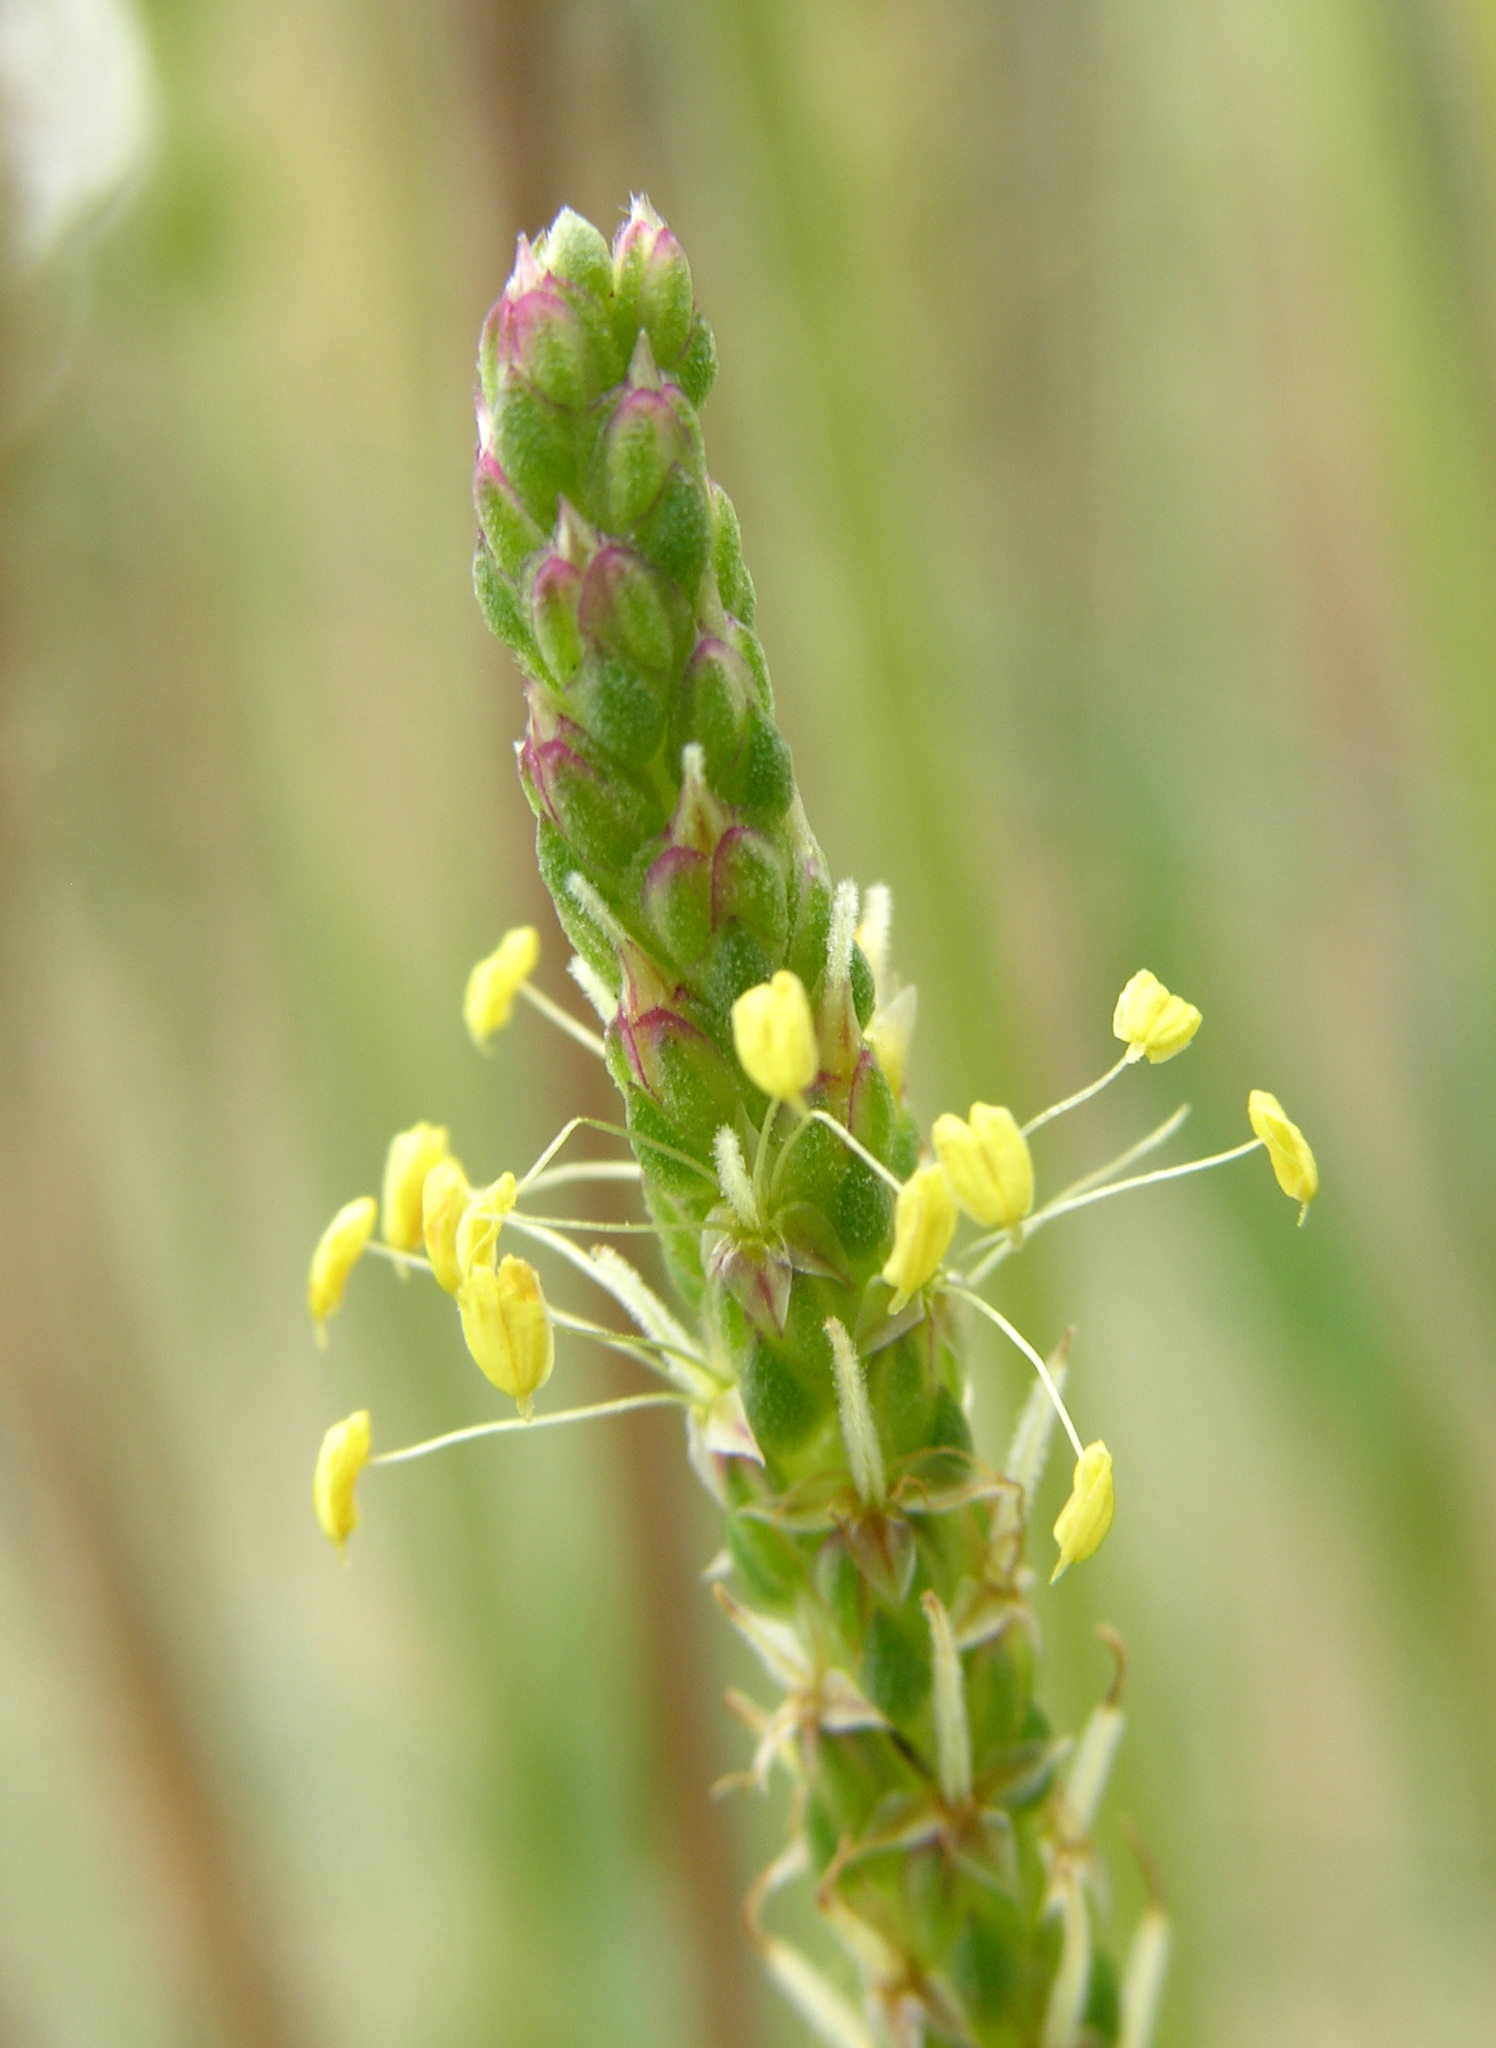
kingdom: Plantae
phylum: Tracheophyta
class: Magnoliopsida
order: Lamiales
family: Plantaginaceae
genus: Plantago
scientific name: Plantago maritima
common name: Sea plantain
